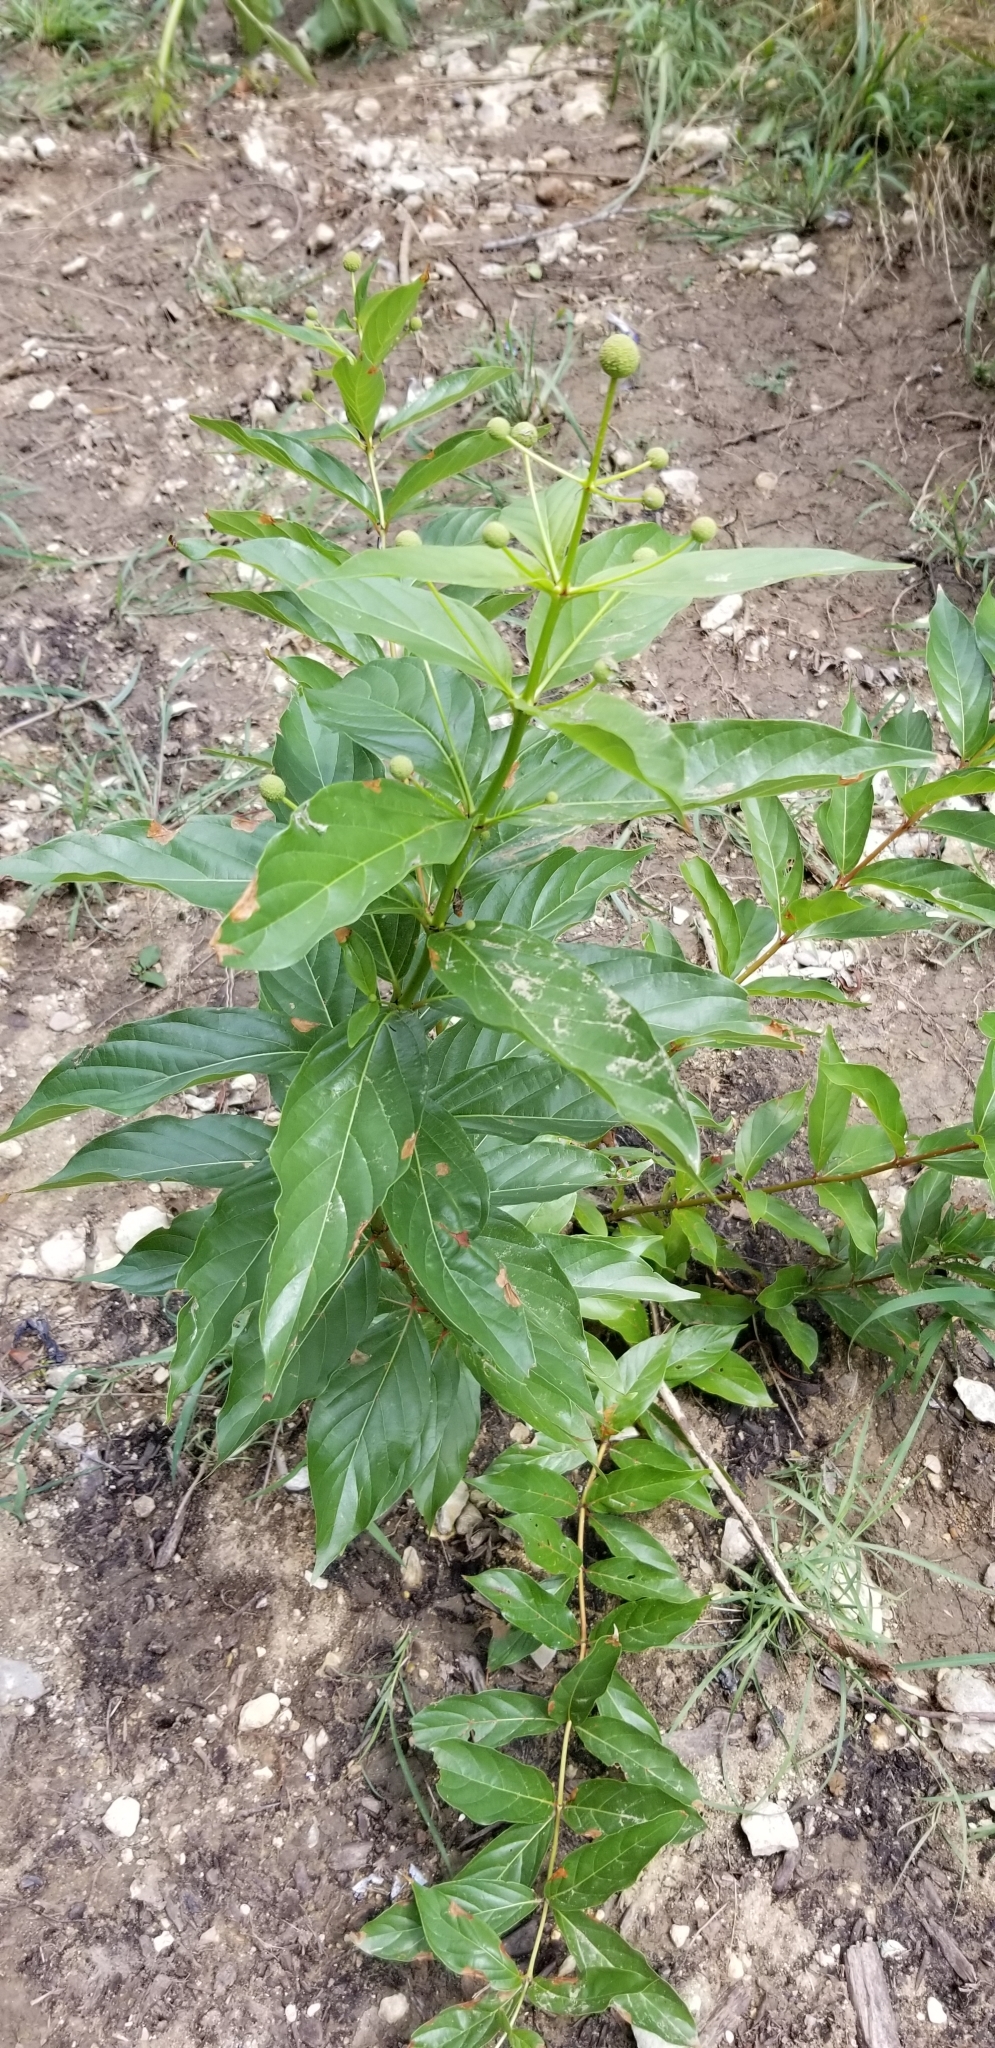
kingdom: Plantae
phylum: Tracheophyta
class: Magnoliopsida
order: Gentianales
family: Rubiaceae
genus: Cephalanthus
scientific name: Cephalanthus occidentalis
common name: Button-willow
